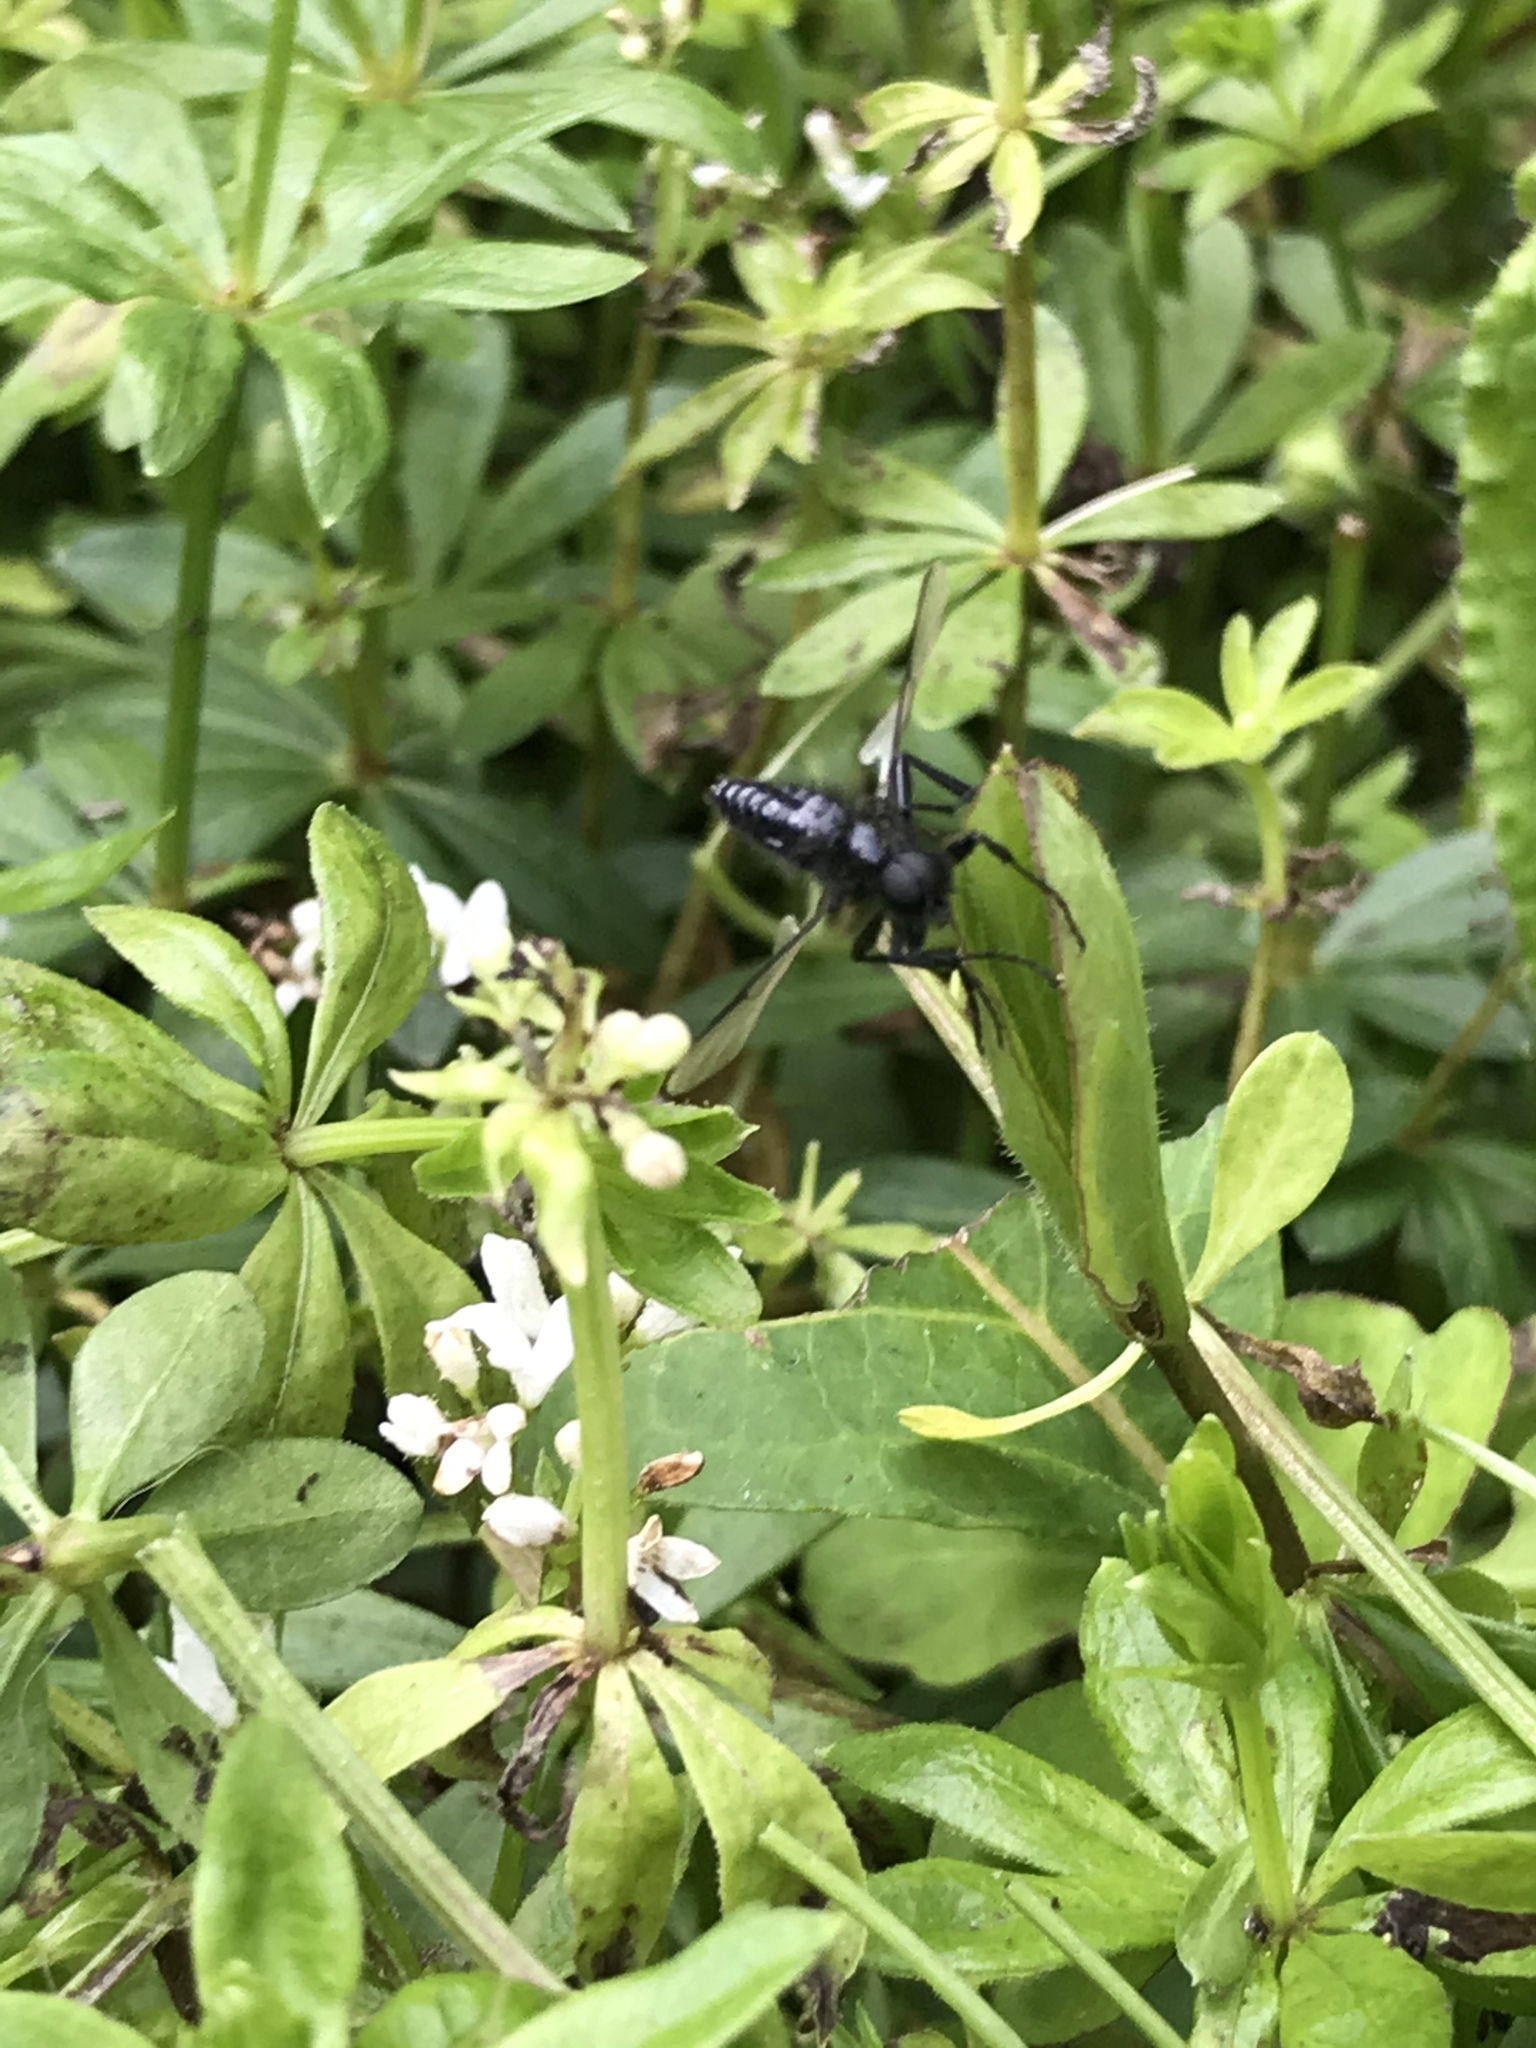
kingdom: Animalia
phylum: Arthropoda
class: Insecta
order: Diptera
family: Bibionidae
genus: Bibio
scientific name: Bibio marci
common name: St marks fly
